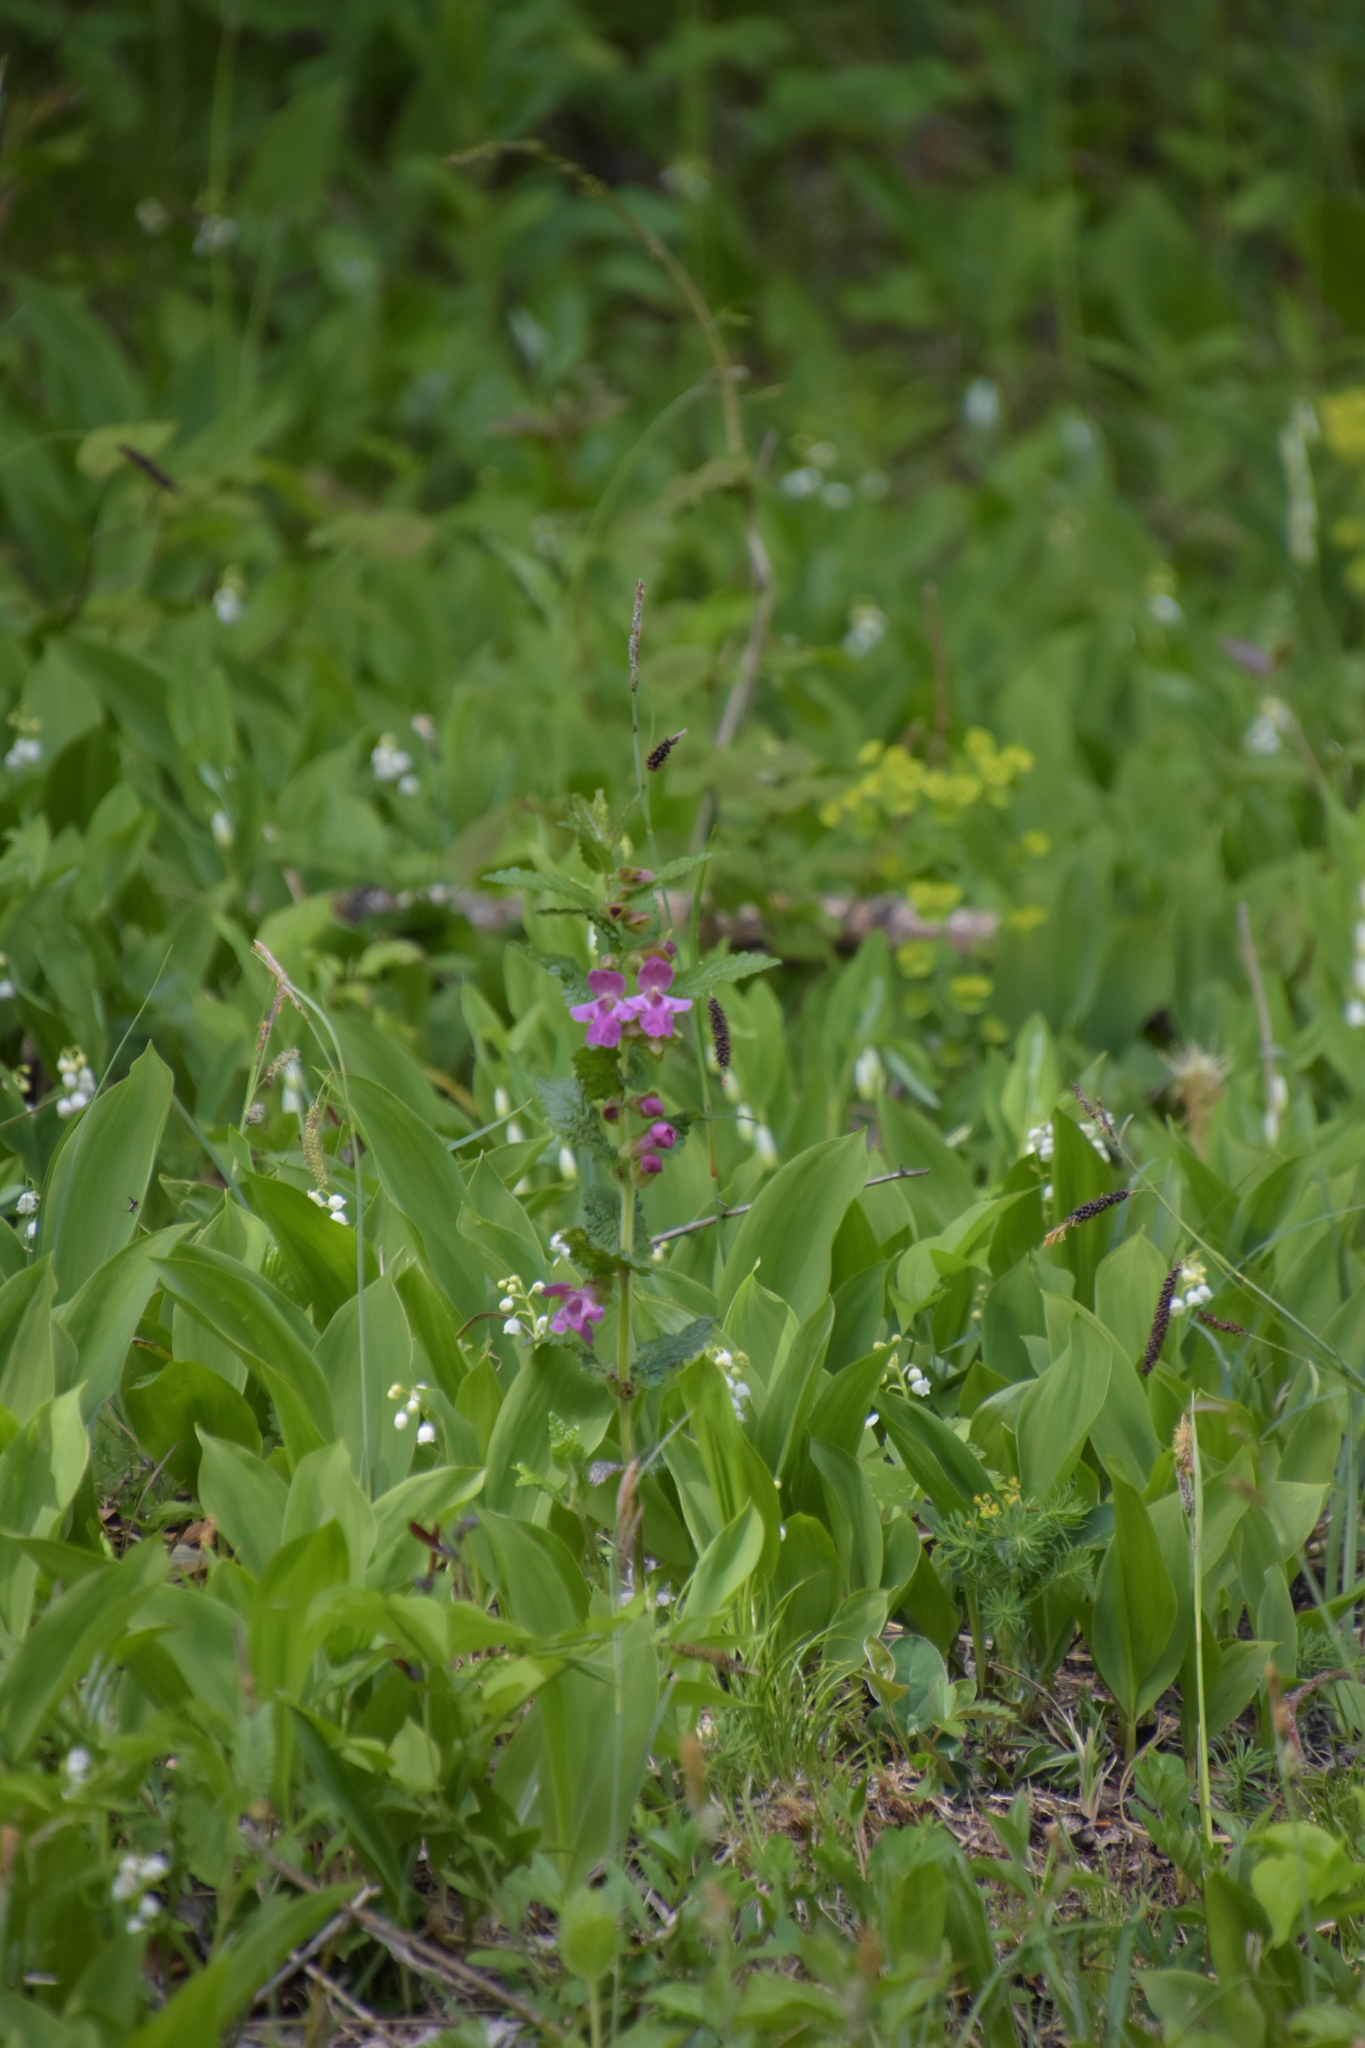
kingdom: Plantae
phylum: Tracheophyta
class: Magnoliopsida
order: Lamiales
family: Lamiaceae
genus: Melittis
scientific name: Melittis melissophyllum
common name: Bastard balm
